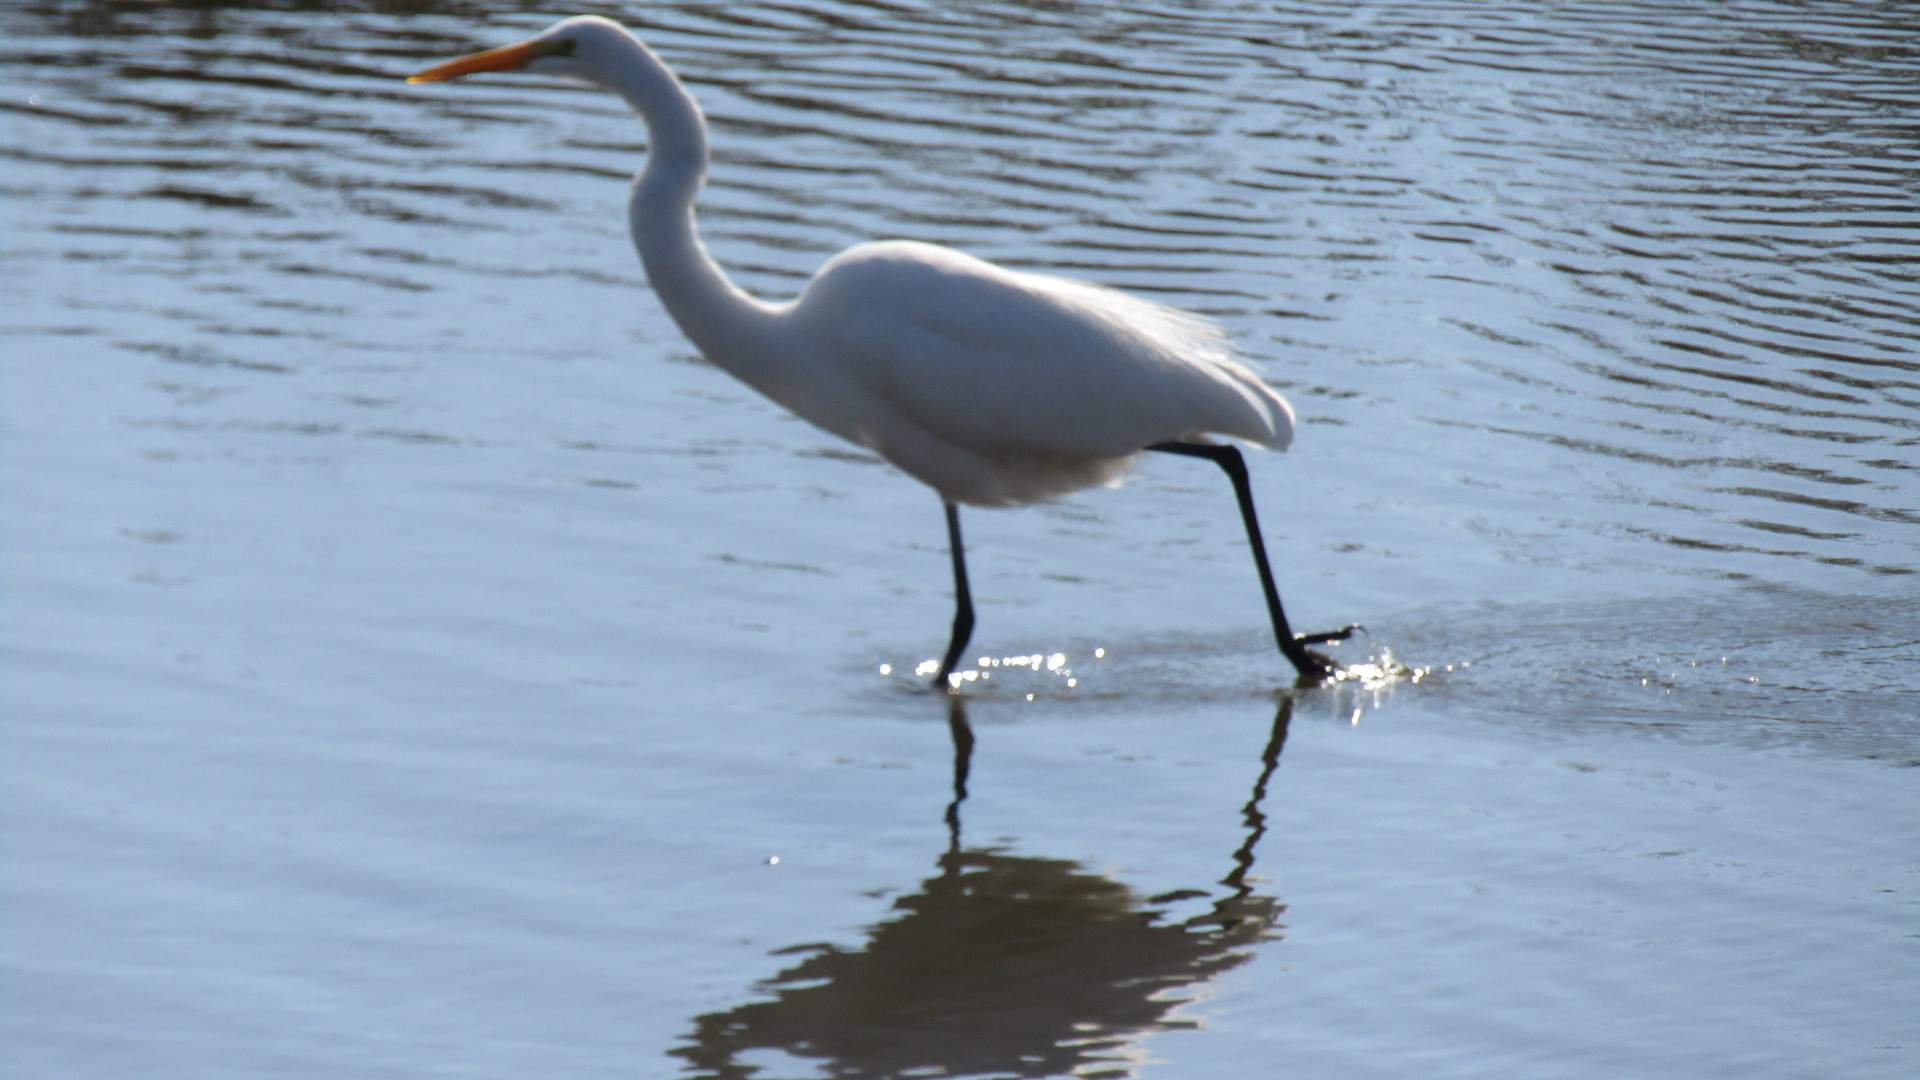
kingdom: Animalia
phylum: Chordata
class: Aves
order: Pelecaniformes
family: Ardeidae
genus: Ardea
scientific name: Ardea alba
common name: Great egret
